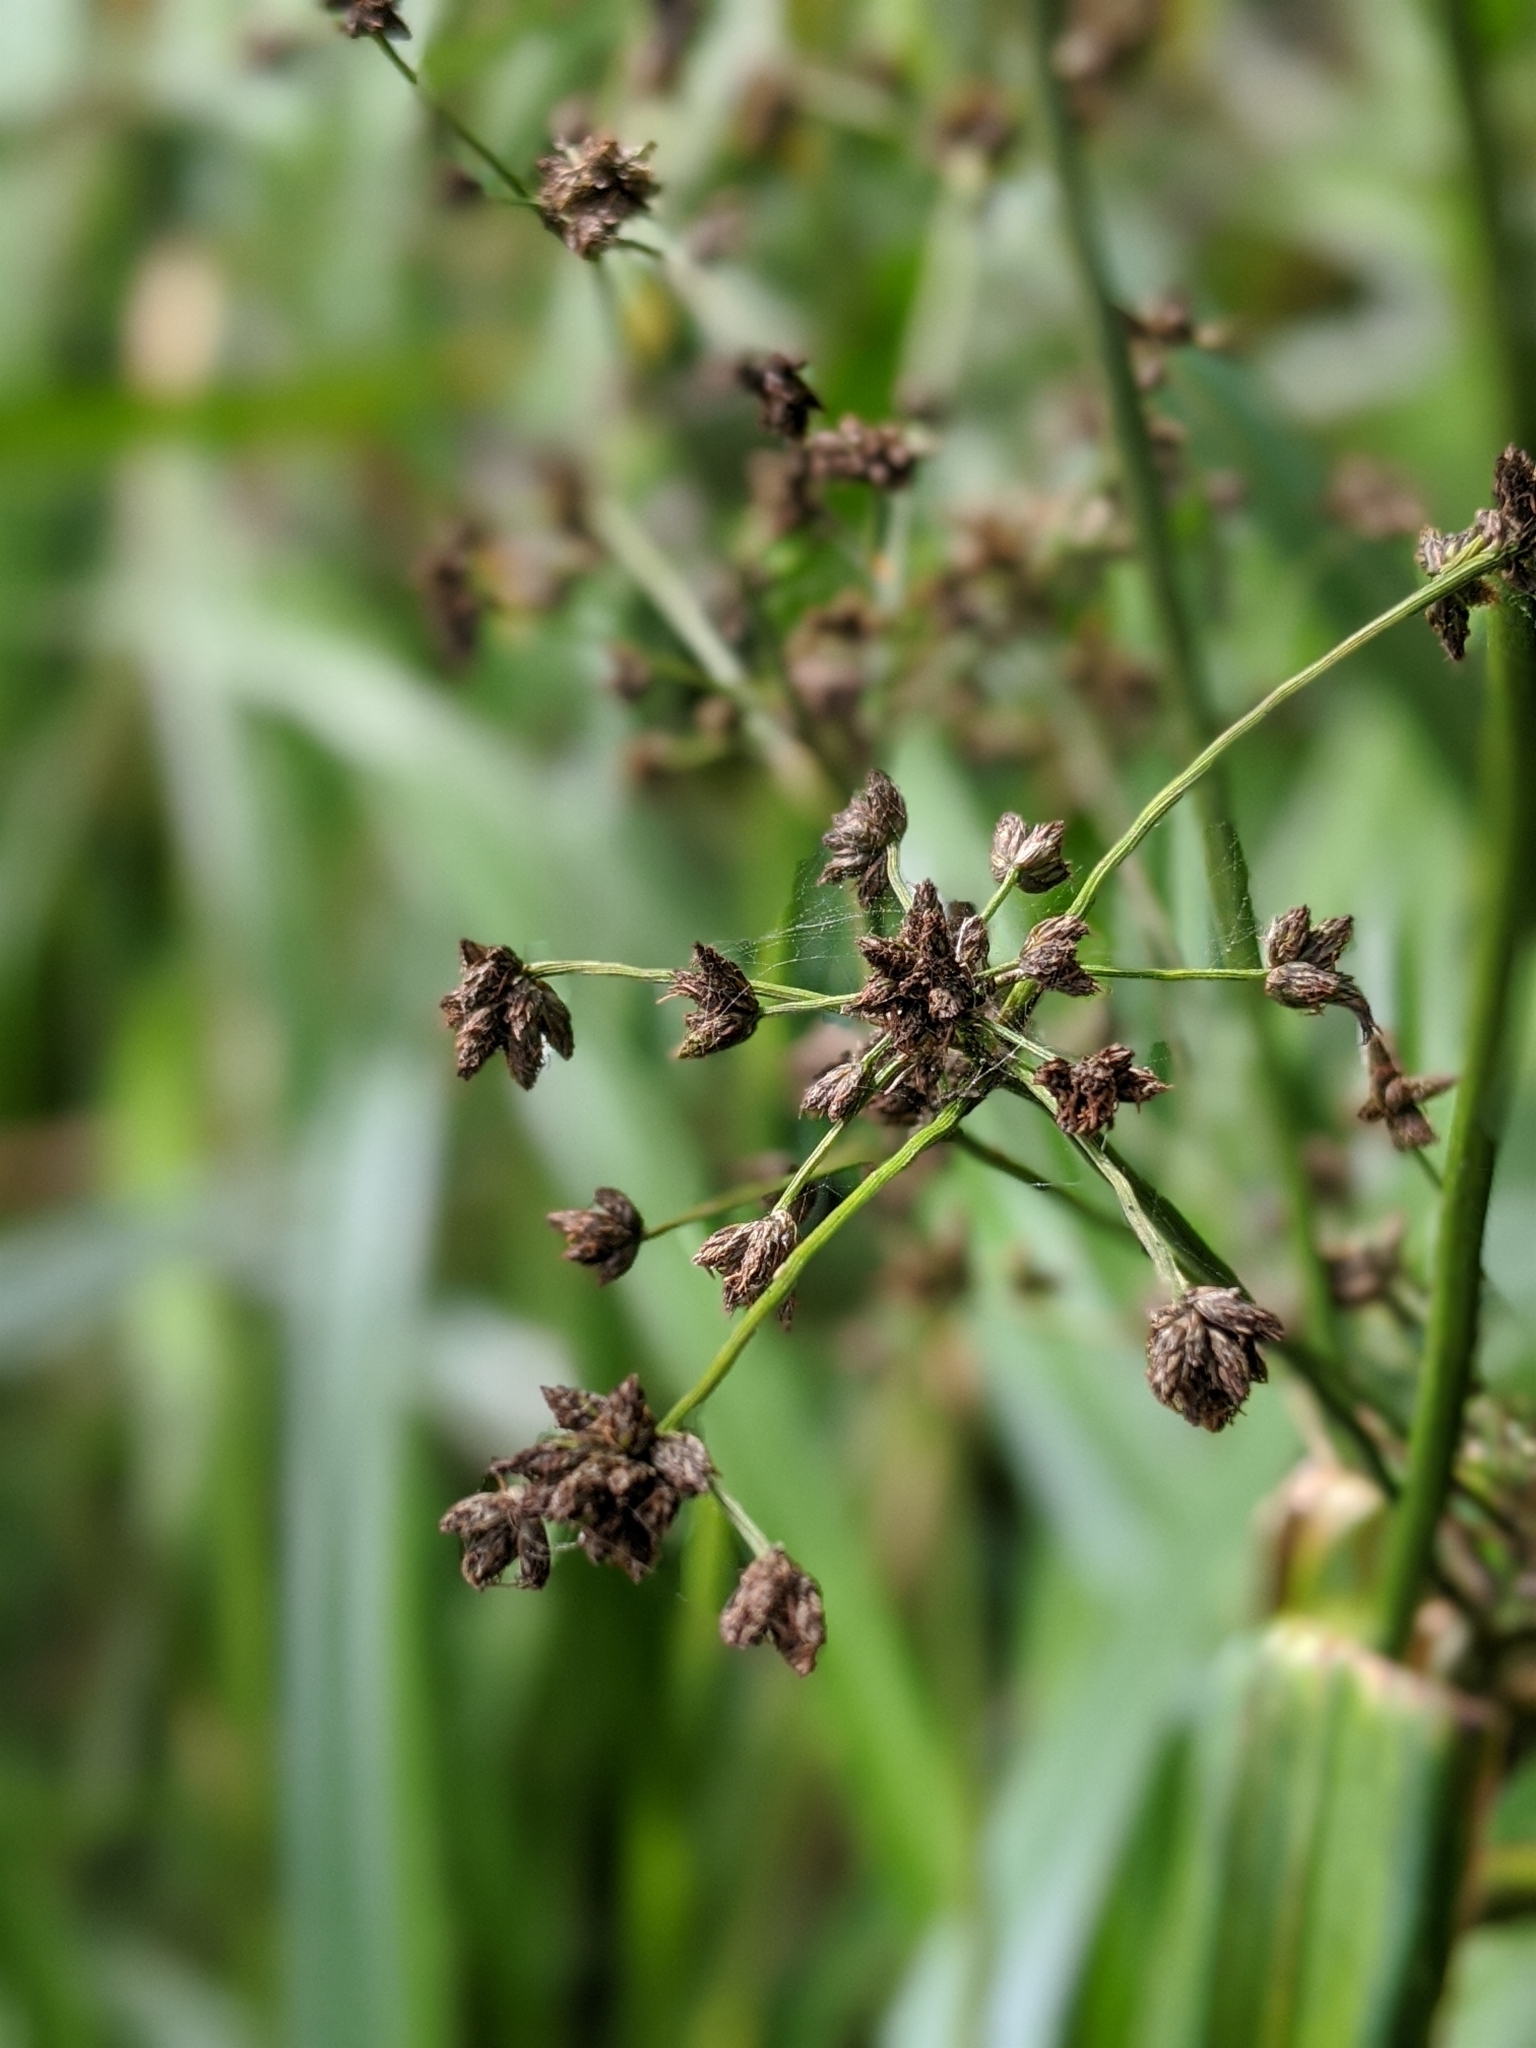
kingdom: Plantae
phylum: Tracheophyta
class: Liliopsida
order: Poales
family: Cyperaceae
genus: Scirpus
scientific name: Scirpus microcarpus
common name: Panicled bulrush
